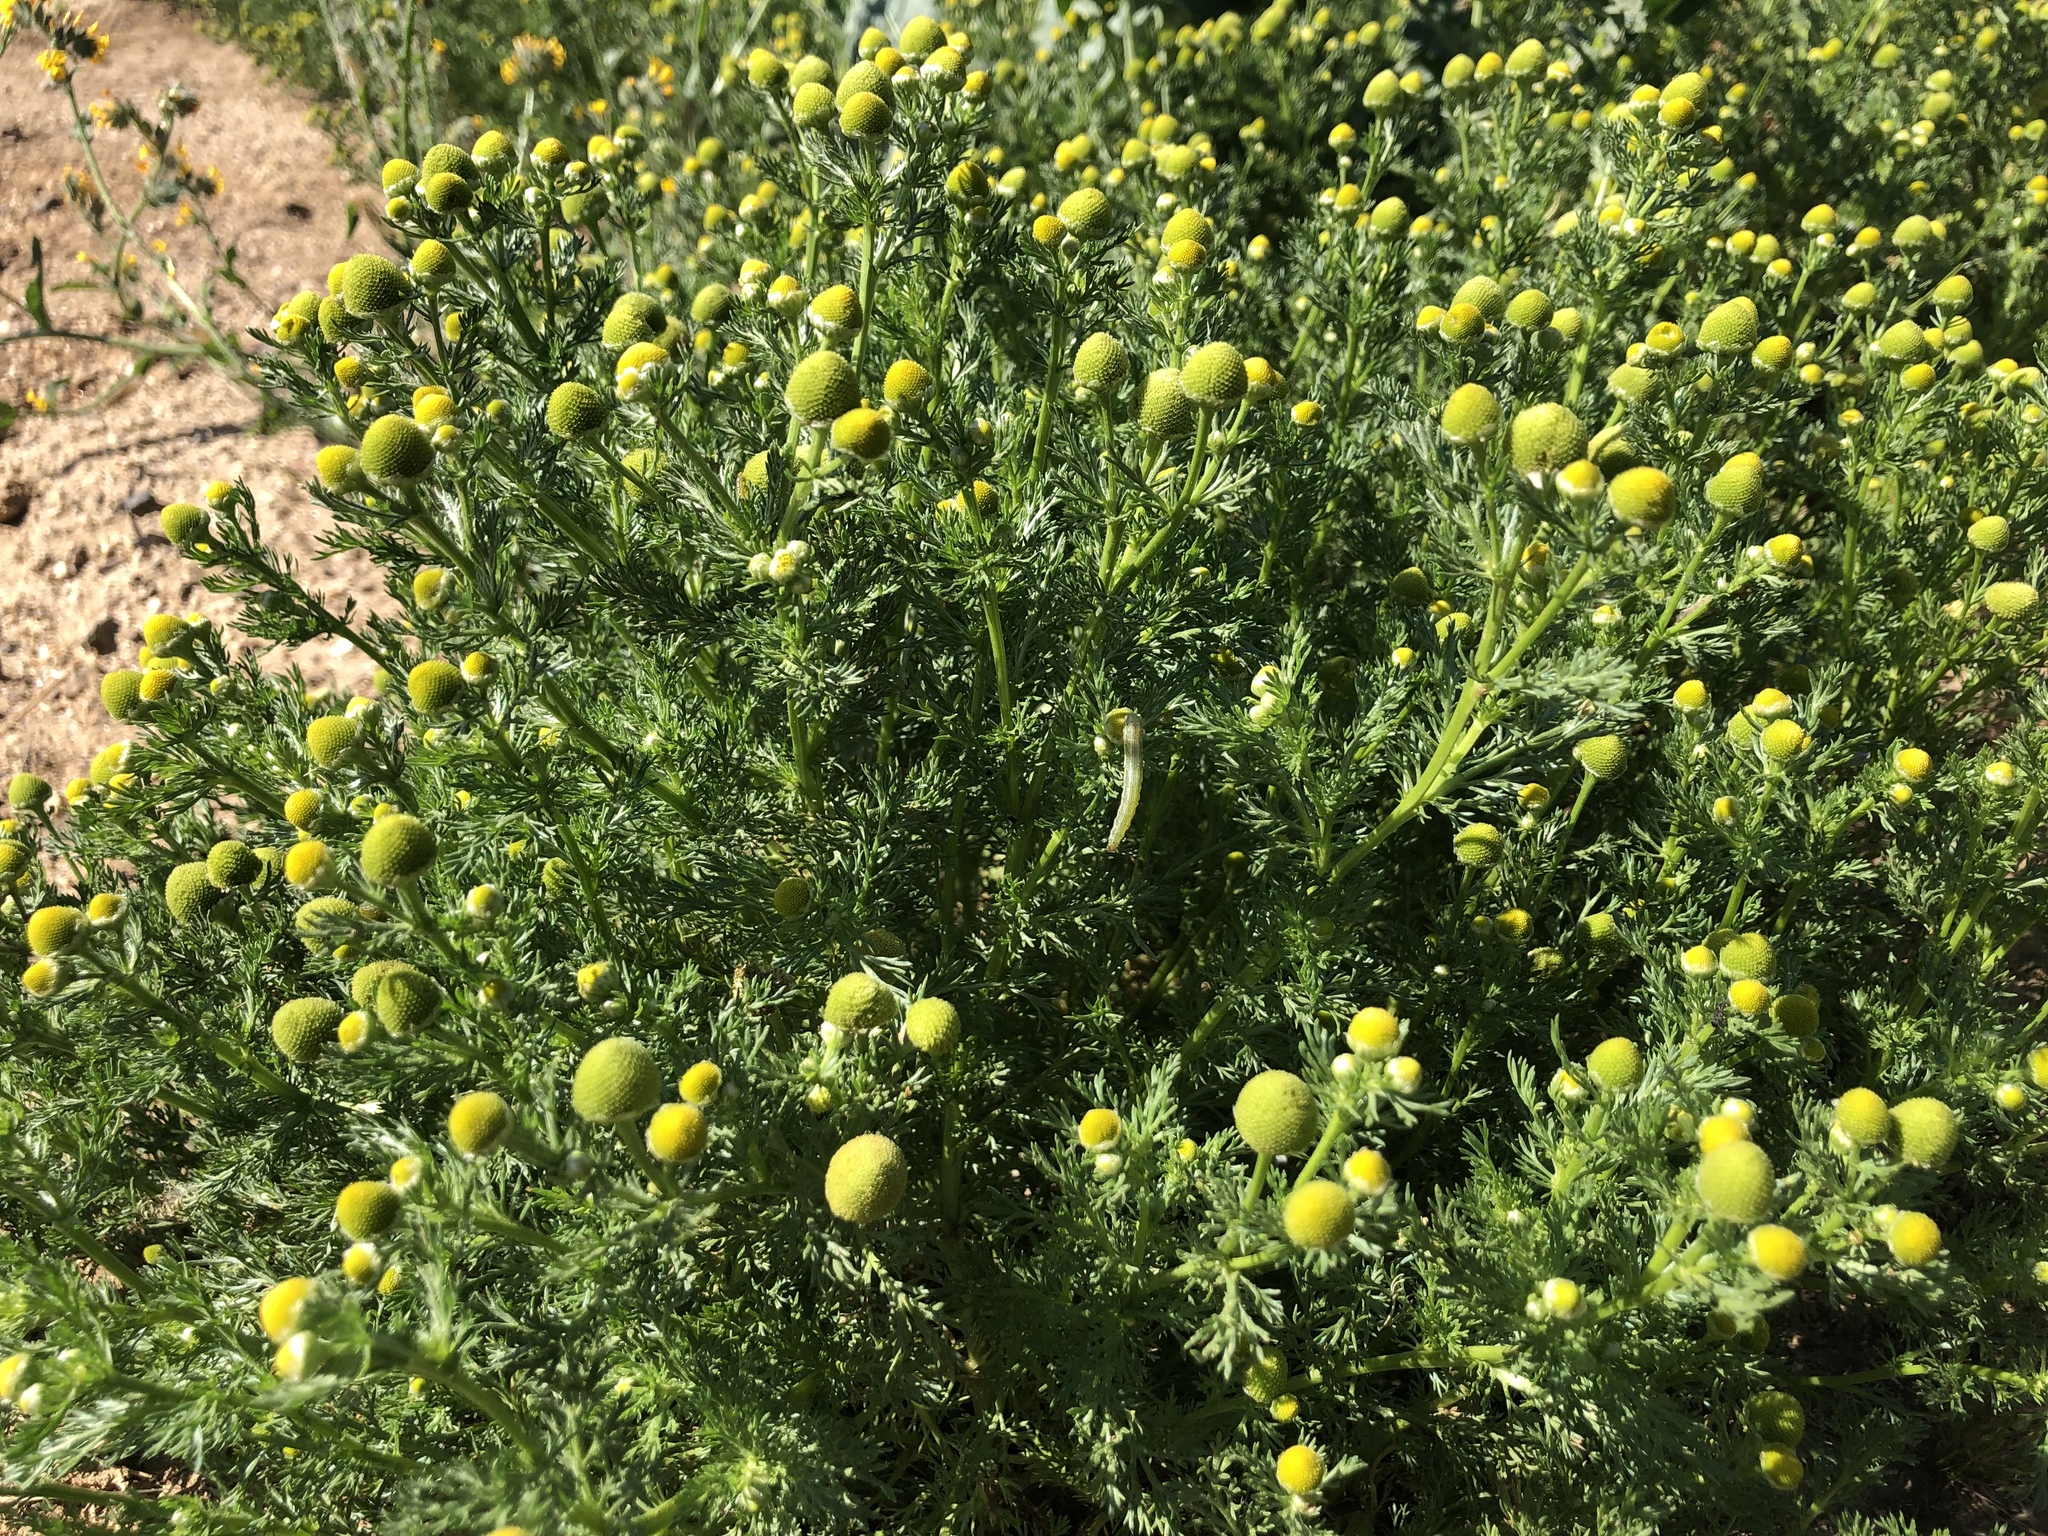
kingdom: Plantae
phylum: Tracheophyta
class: Magnoliopsida
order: Asterales
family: Asteraceae
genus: Matricaria
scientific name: Matricaria discoidea
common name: Disc mayweed
